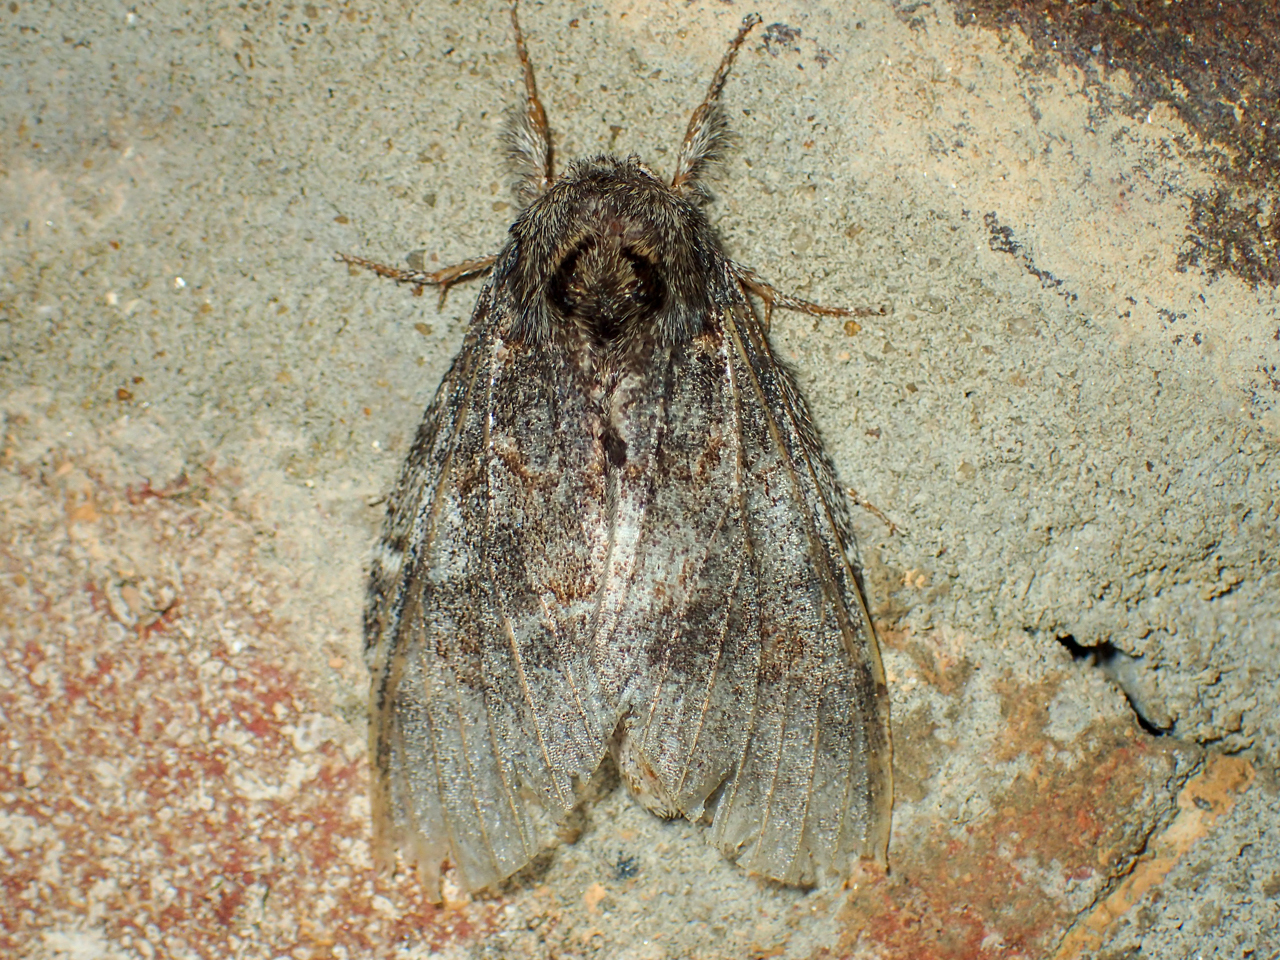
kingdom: Animalia
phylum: Arthropoda
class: Insecta
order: Lepidoptera
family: Notodontidae
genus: Peridea
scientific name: Peridea angulosa
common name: Angulose prominent
